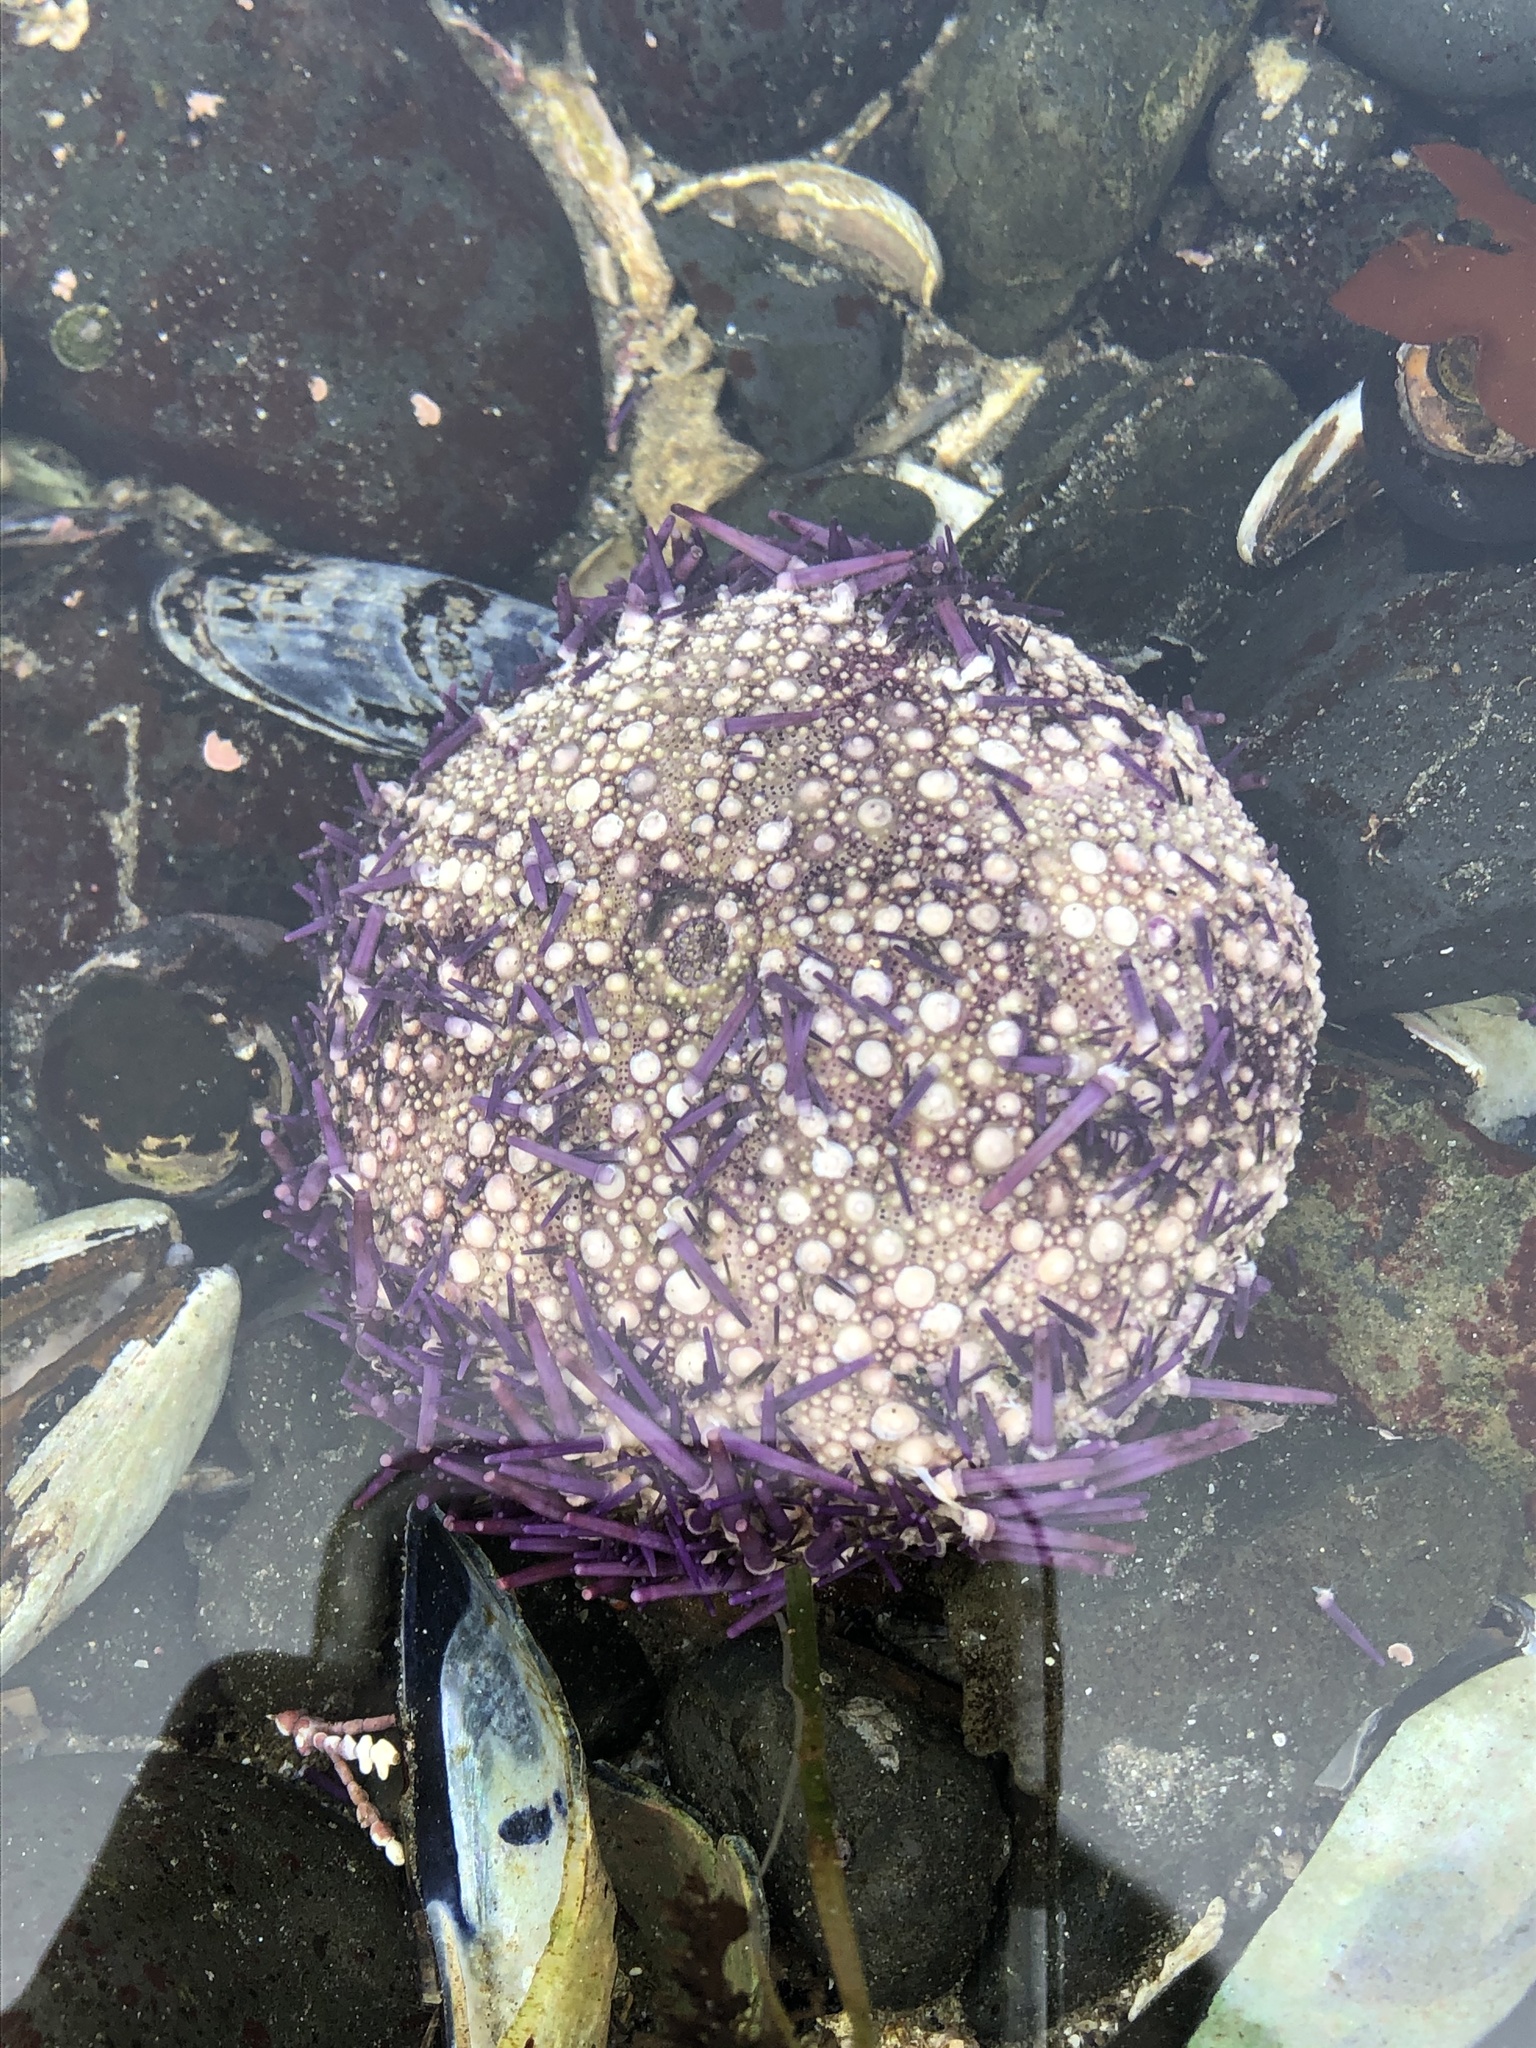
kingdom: Animalia
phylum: Echinodermata
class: Echinoidea
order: Camarodonta
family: Strongylocentrotidae
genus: Strongylocentrotus
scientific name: Strongylocentrotus purpuratus
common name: Purple sea urchin
